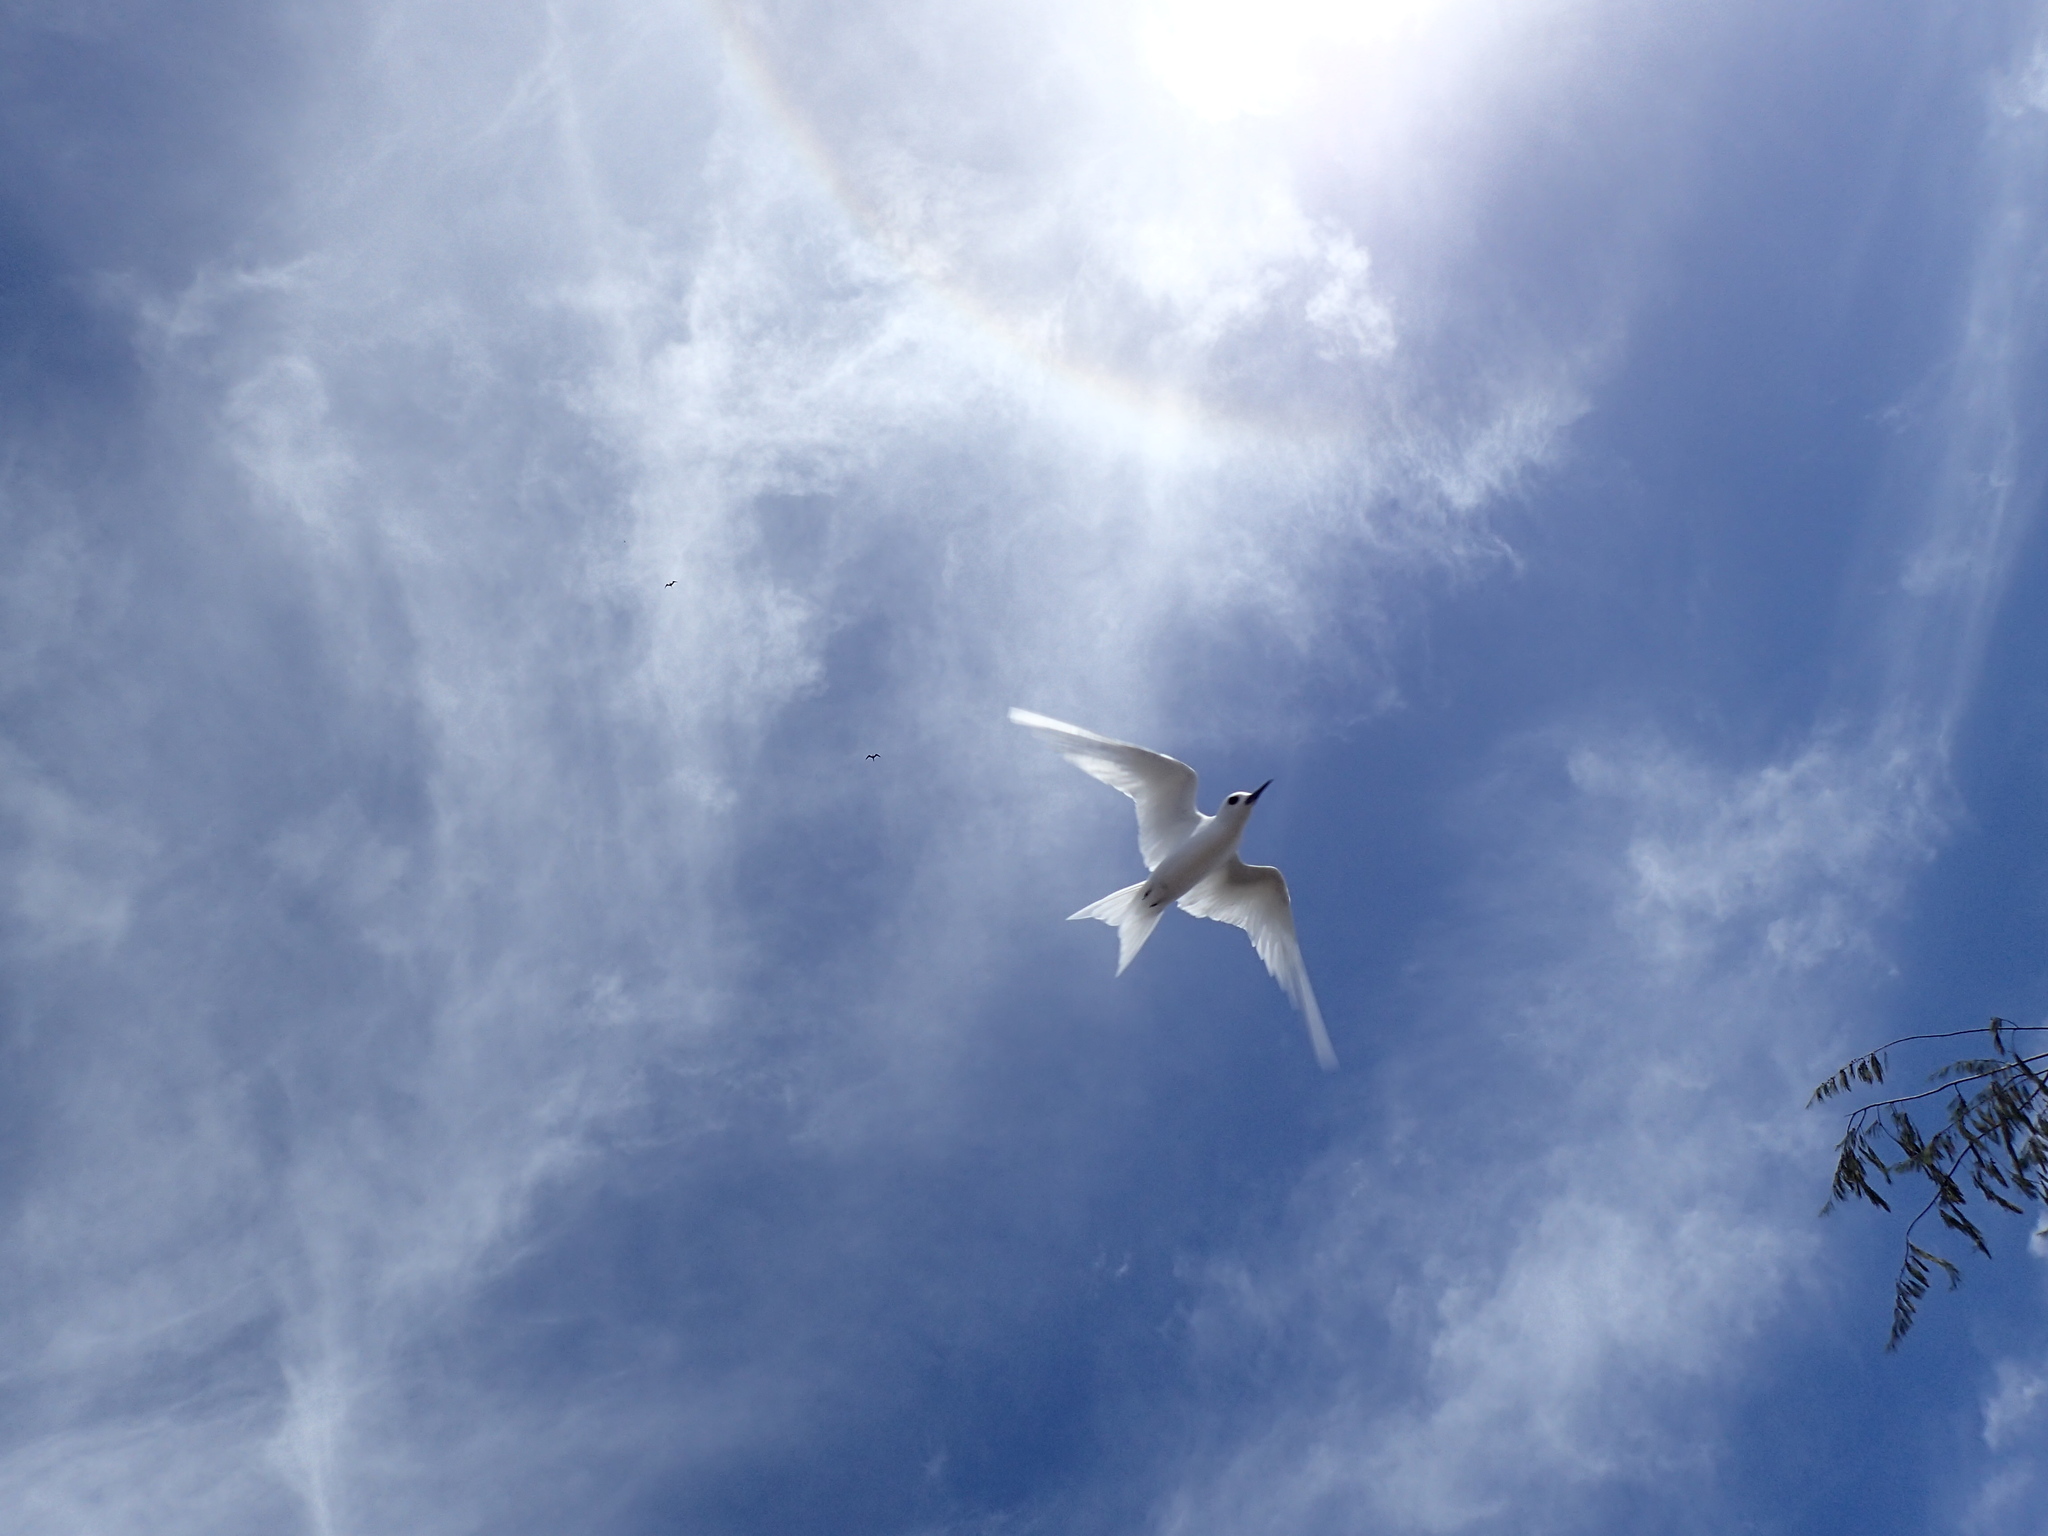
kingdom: Animalia
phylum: Chordata
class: Aves
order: Charadriiformes
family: Laridae
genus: Gygis
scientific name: Gygis alba
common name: White tern
